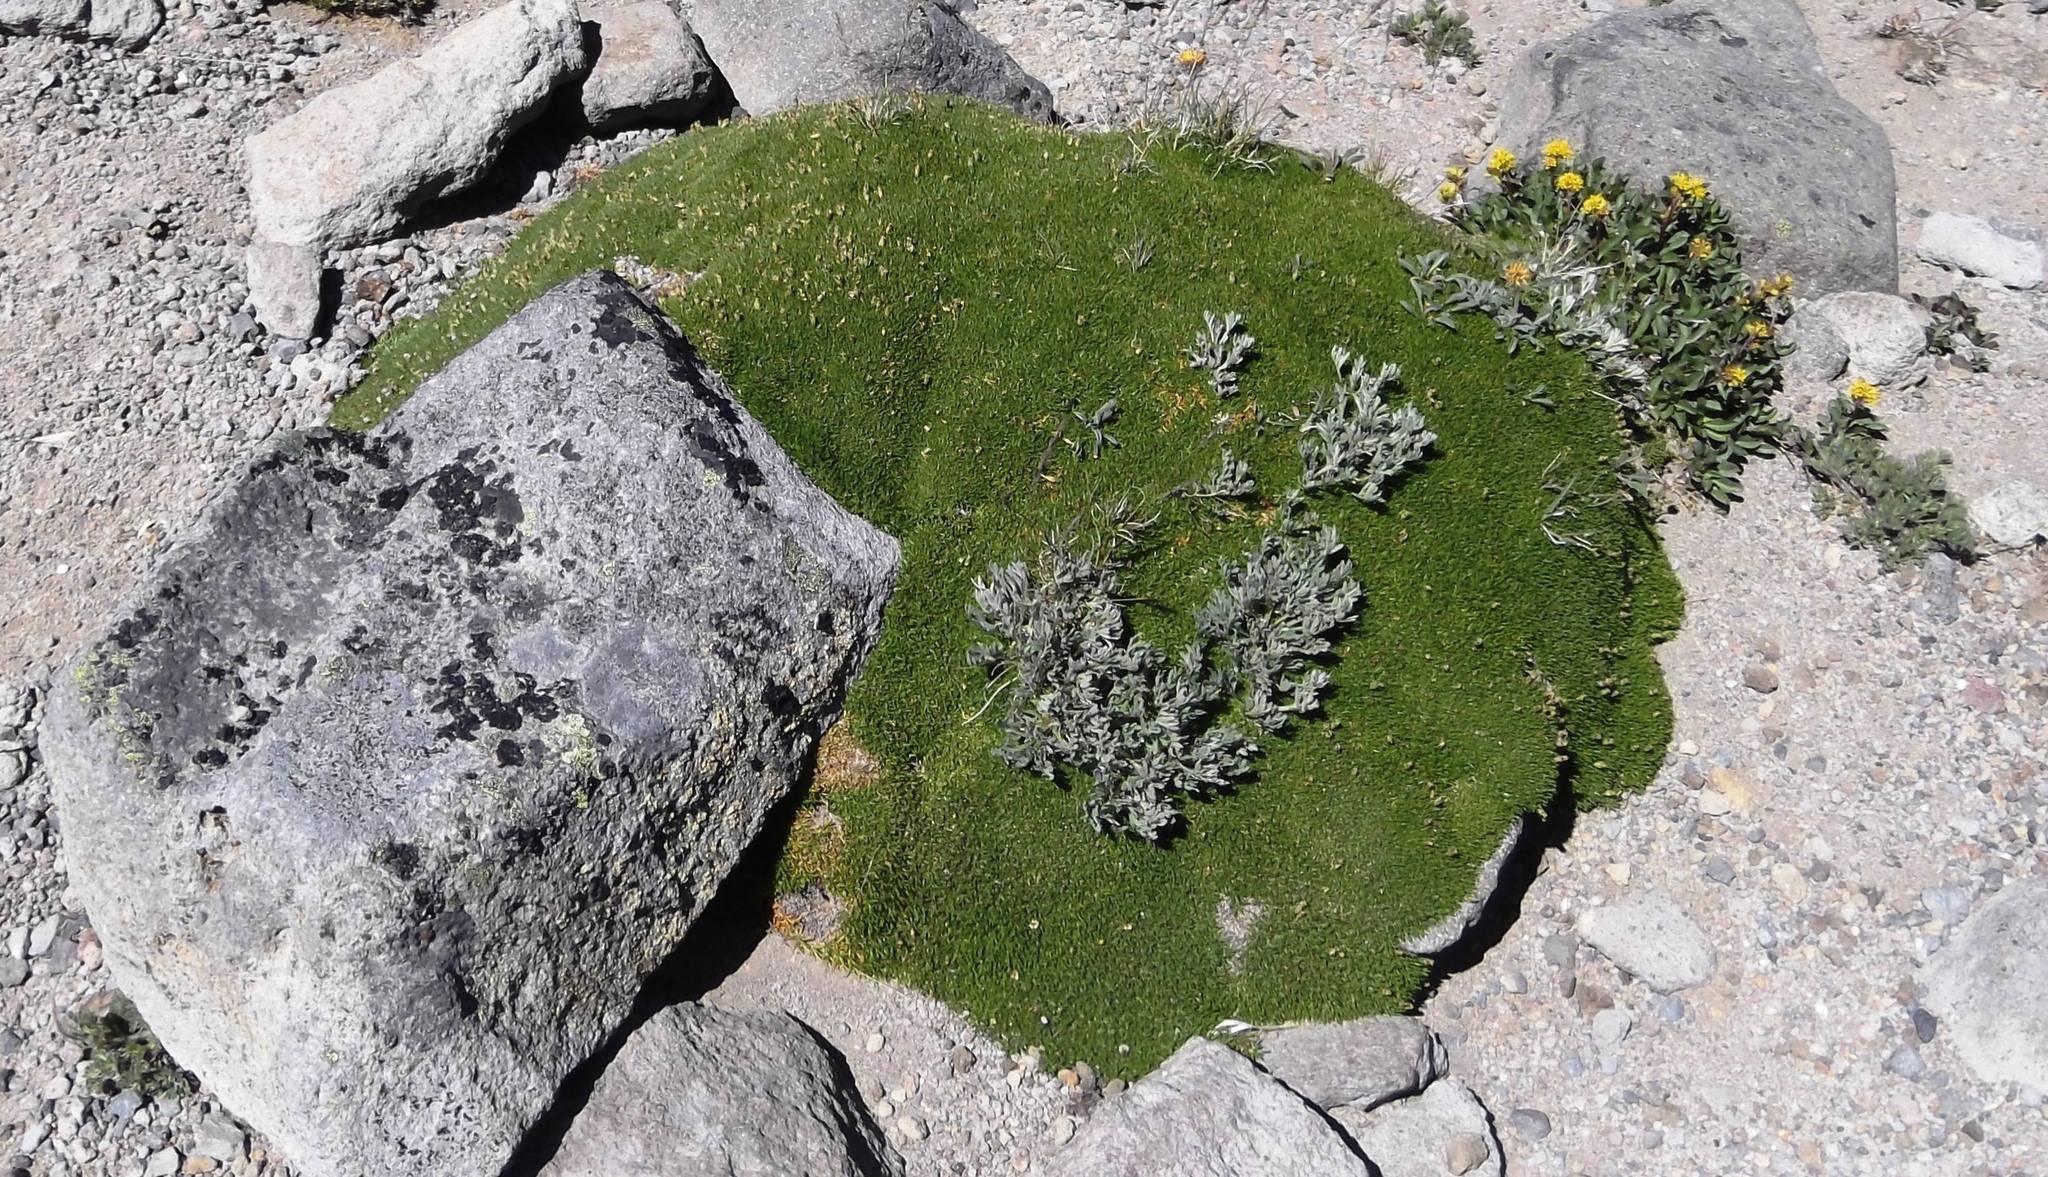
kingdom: Plantae
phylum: Tracheophyta
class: Magnoliopsida
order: Caryophyllales
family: Caryophyllaceae
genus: Silene
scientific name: Silene acaulis
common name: Moss campion
